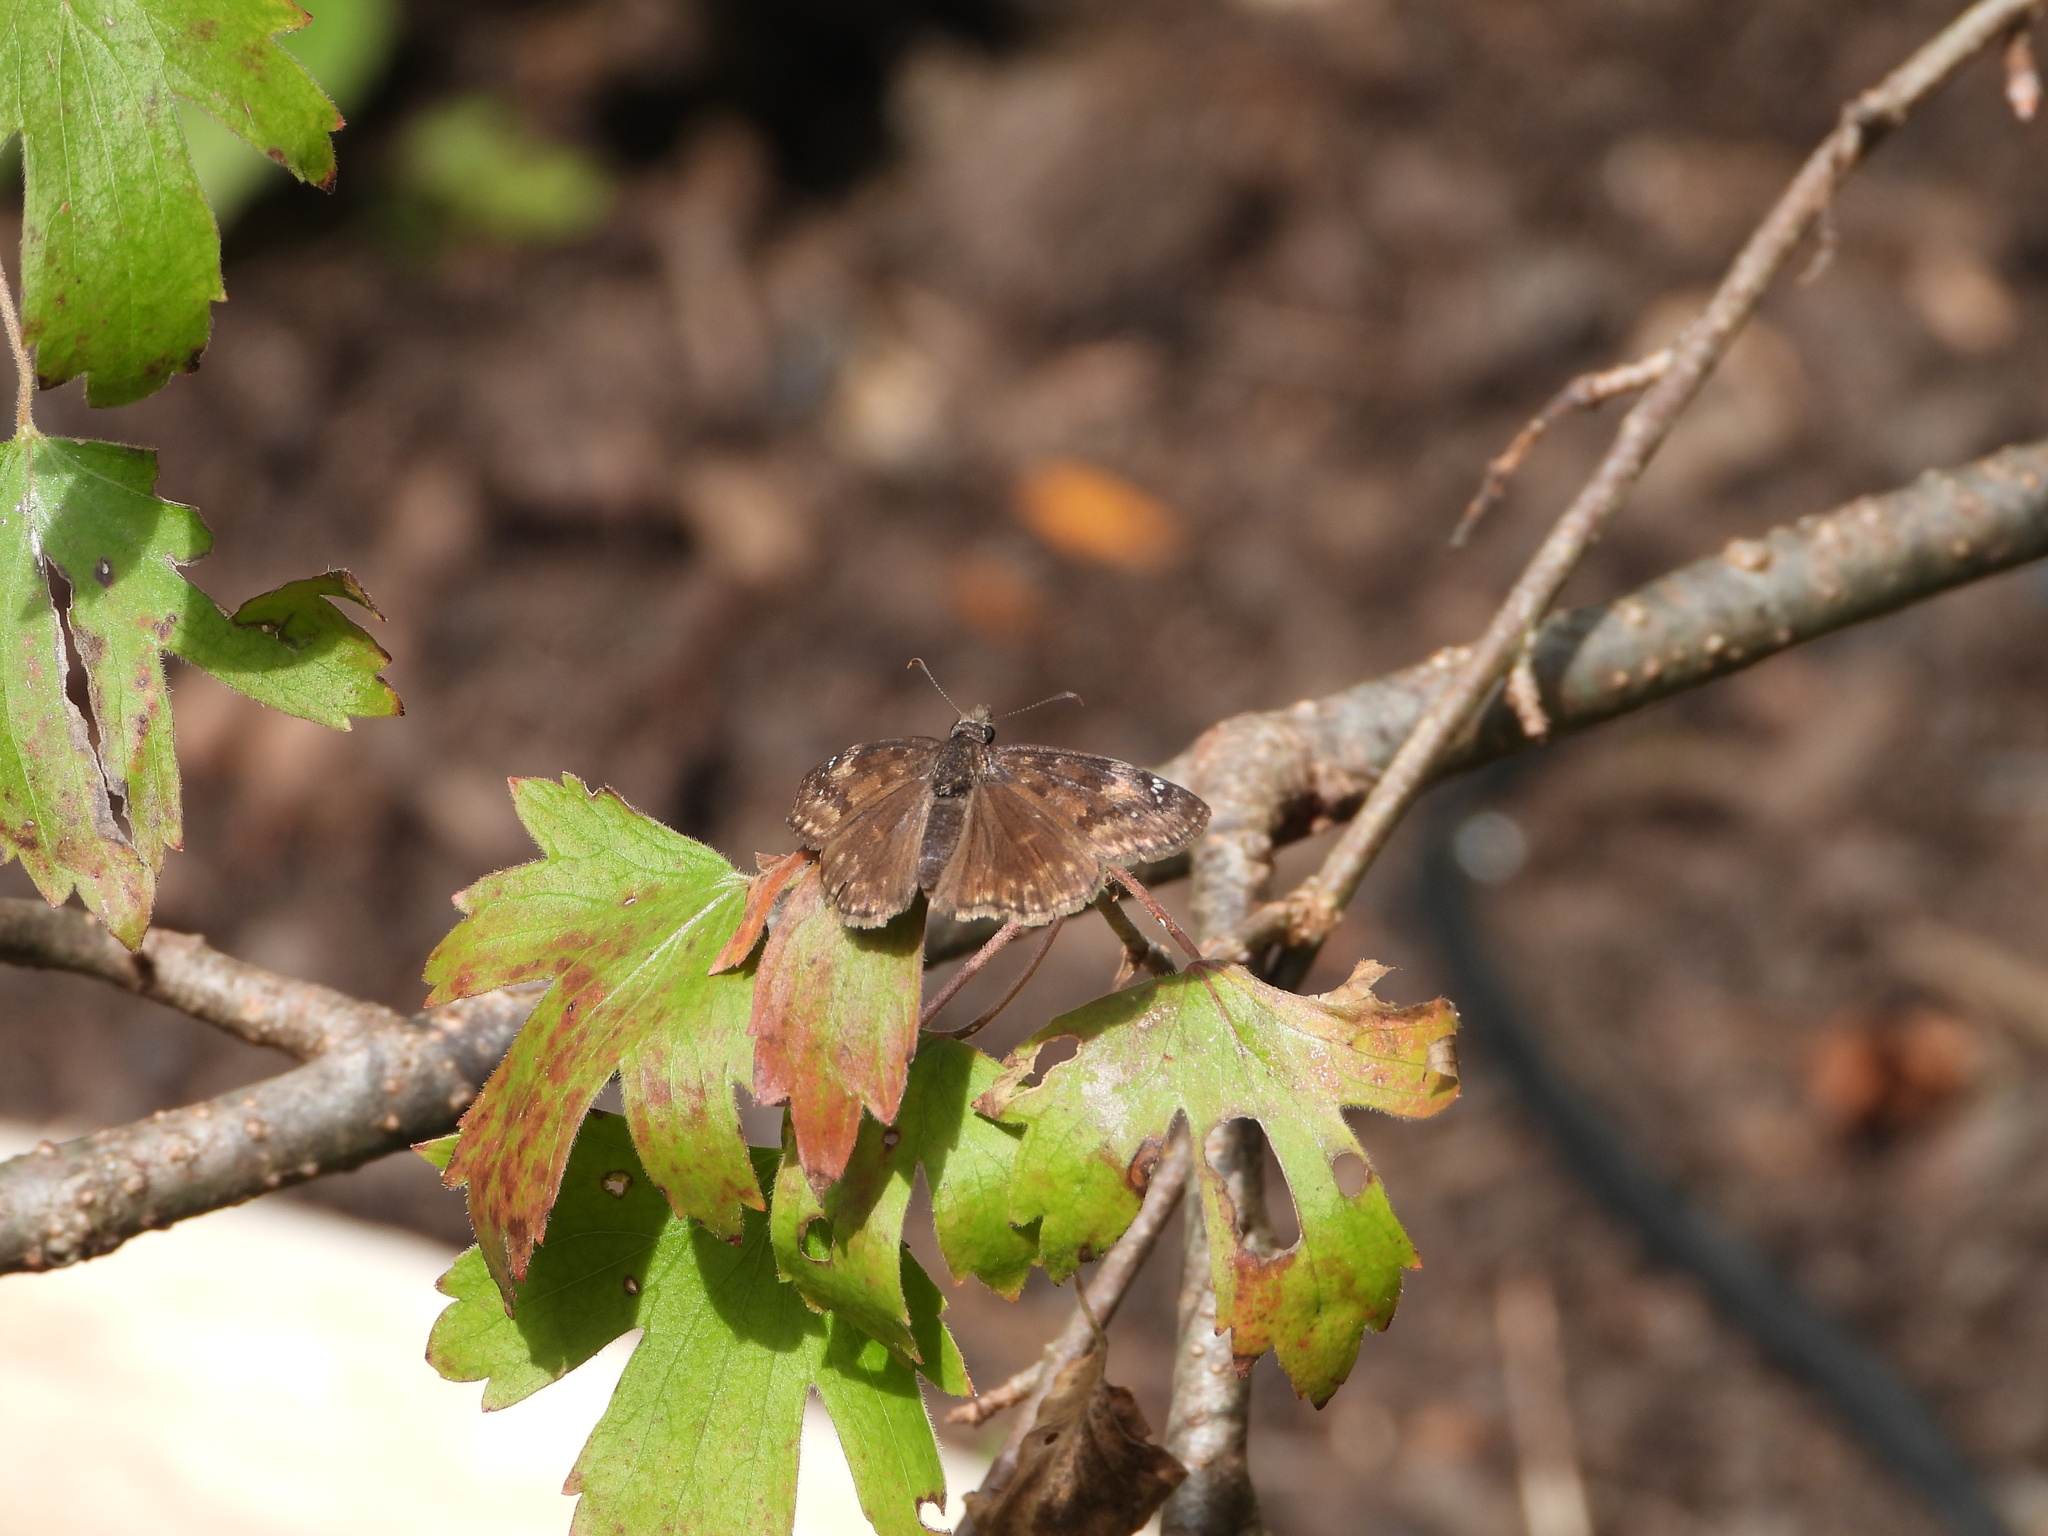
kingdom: Animalia
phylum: Arthropoda
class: Insecta
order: Lepidoptera
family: Hesperiidae
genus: Erynnis
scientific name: Erynnis baptisiae
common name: Wild indigo duskywing
